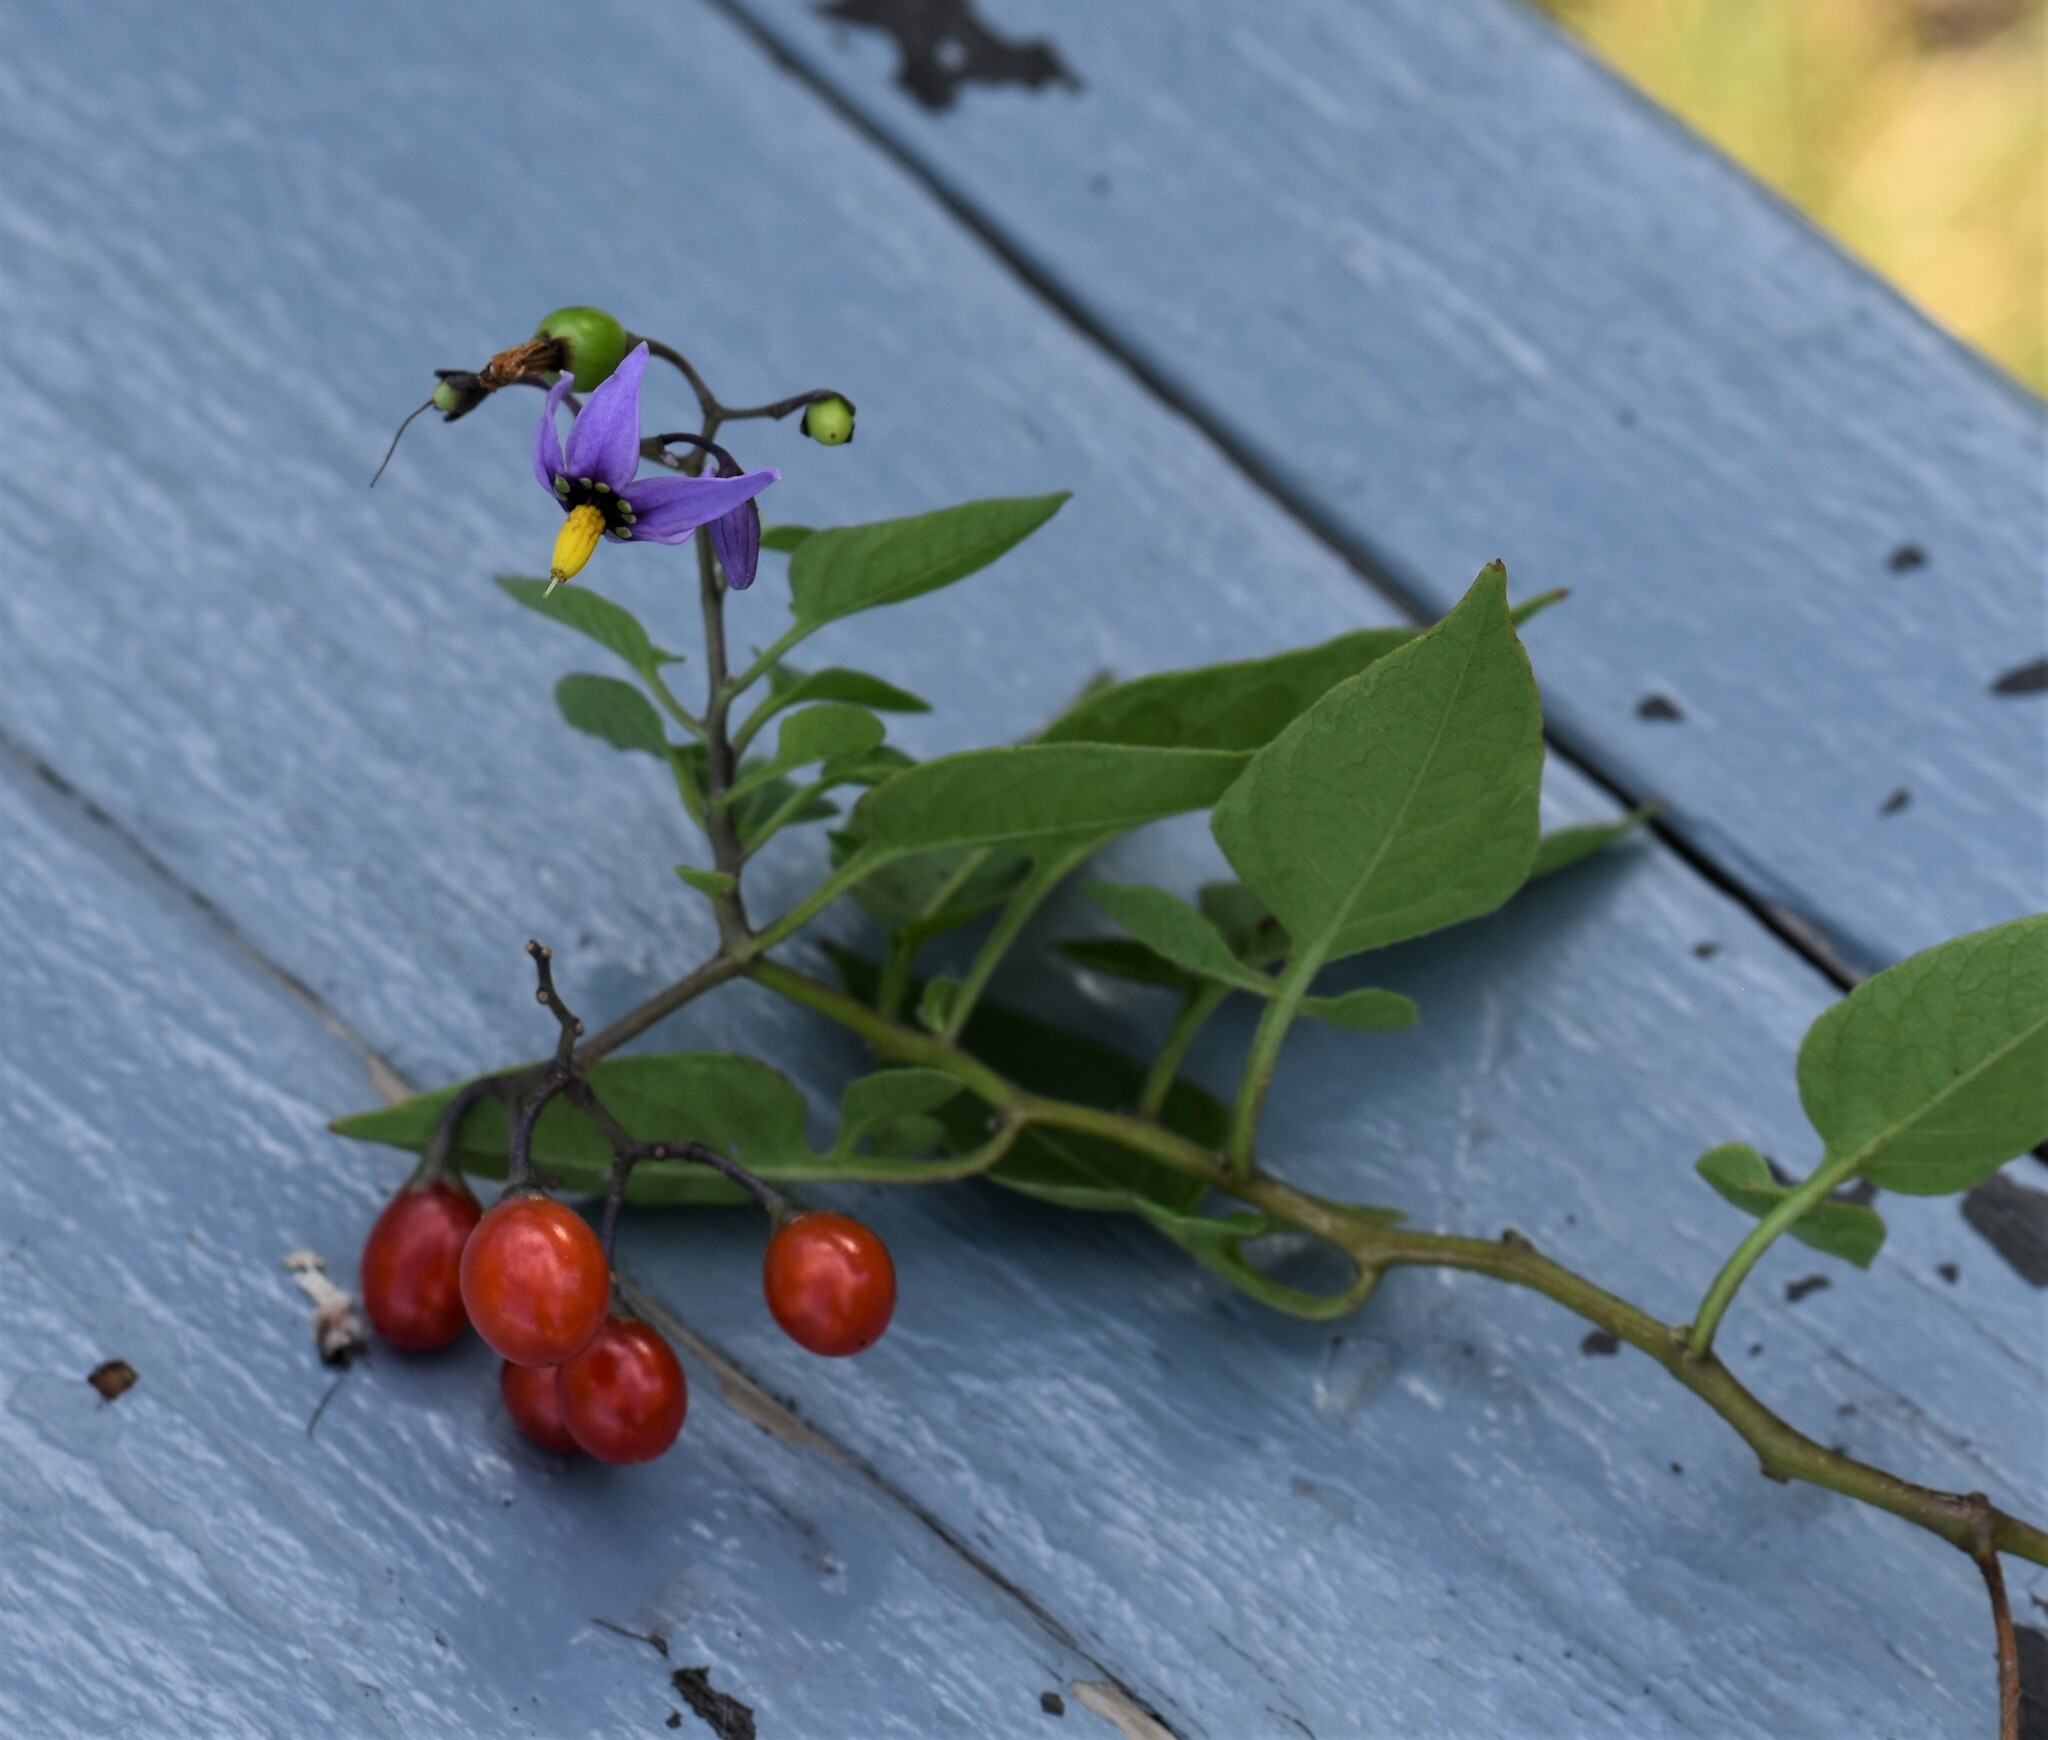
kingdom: Plantae
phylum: Tracheophyta
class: Magnoliopsida
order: Solanales
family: Solanaceae
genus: Solanum
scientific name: Solanum dulcamara
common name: Climbing nightshade
